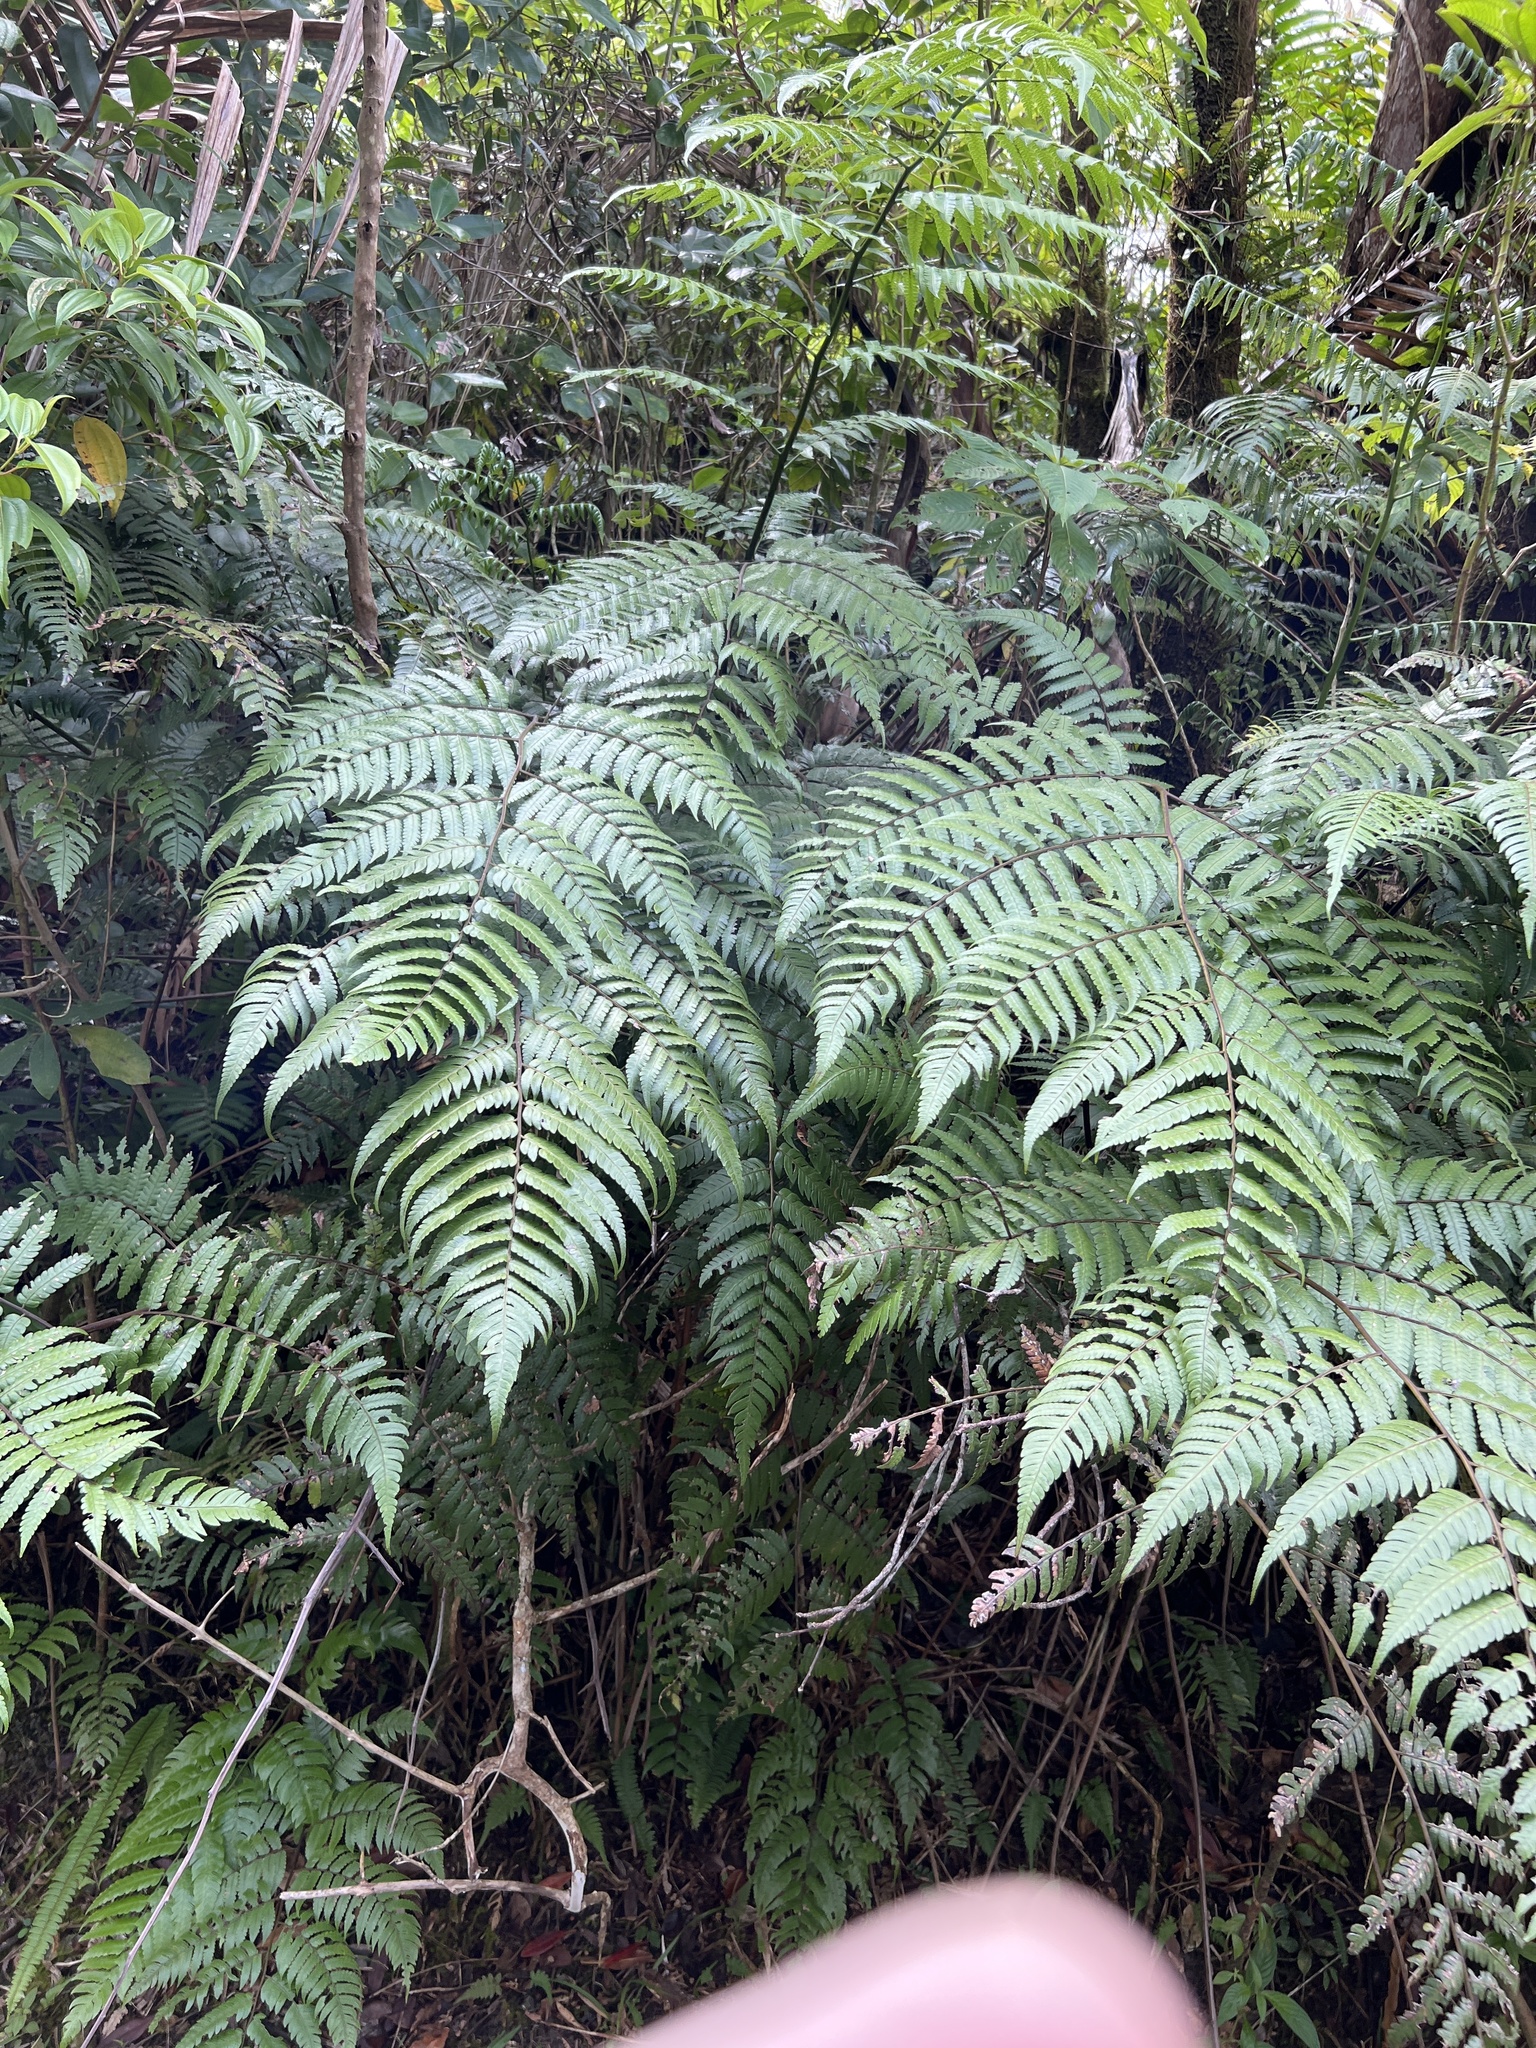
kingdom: Plantae
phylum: Tracheophyta
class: Polypodiopsida
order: Cyatheales
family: Cyatheaceae
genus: Cyathea
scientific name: Cyathea borinquena
